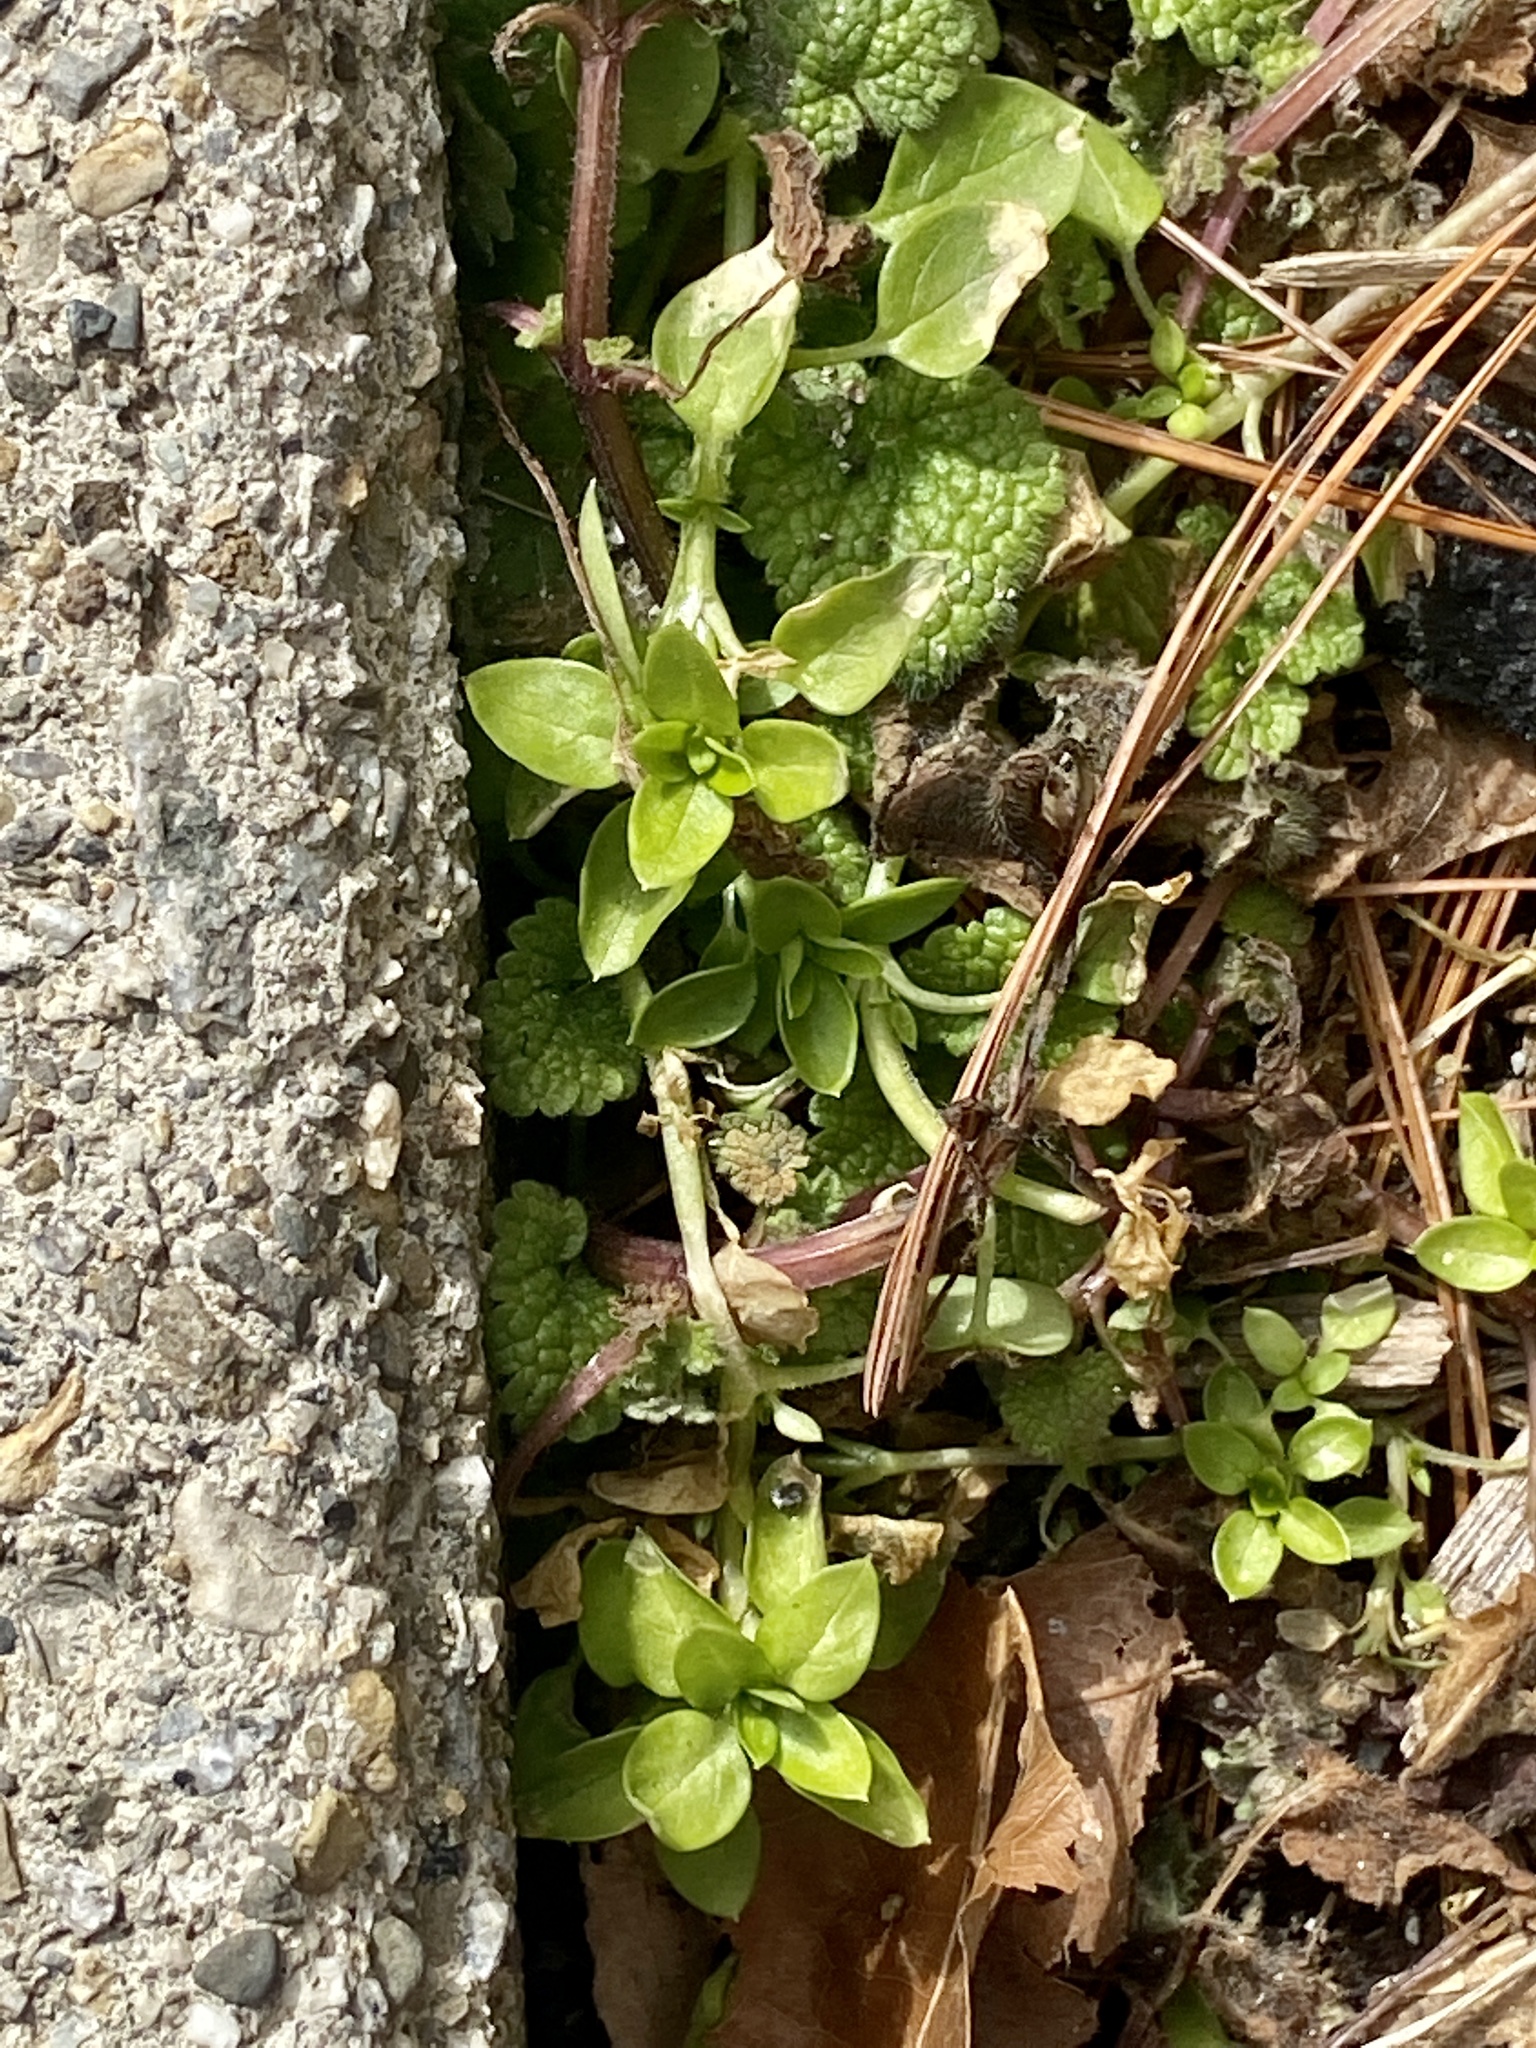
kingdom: Plantae
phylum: Tracheophyta
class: Magnoliopsida
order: Caryophyllales
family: Caryophyllaceae
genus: Stellaria
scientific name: Stellaria media
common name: Common chickweed
